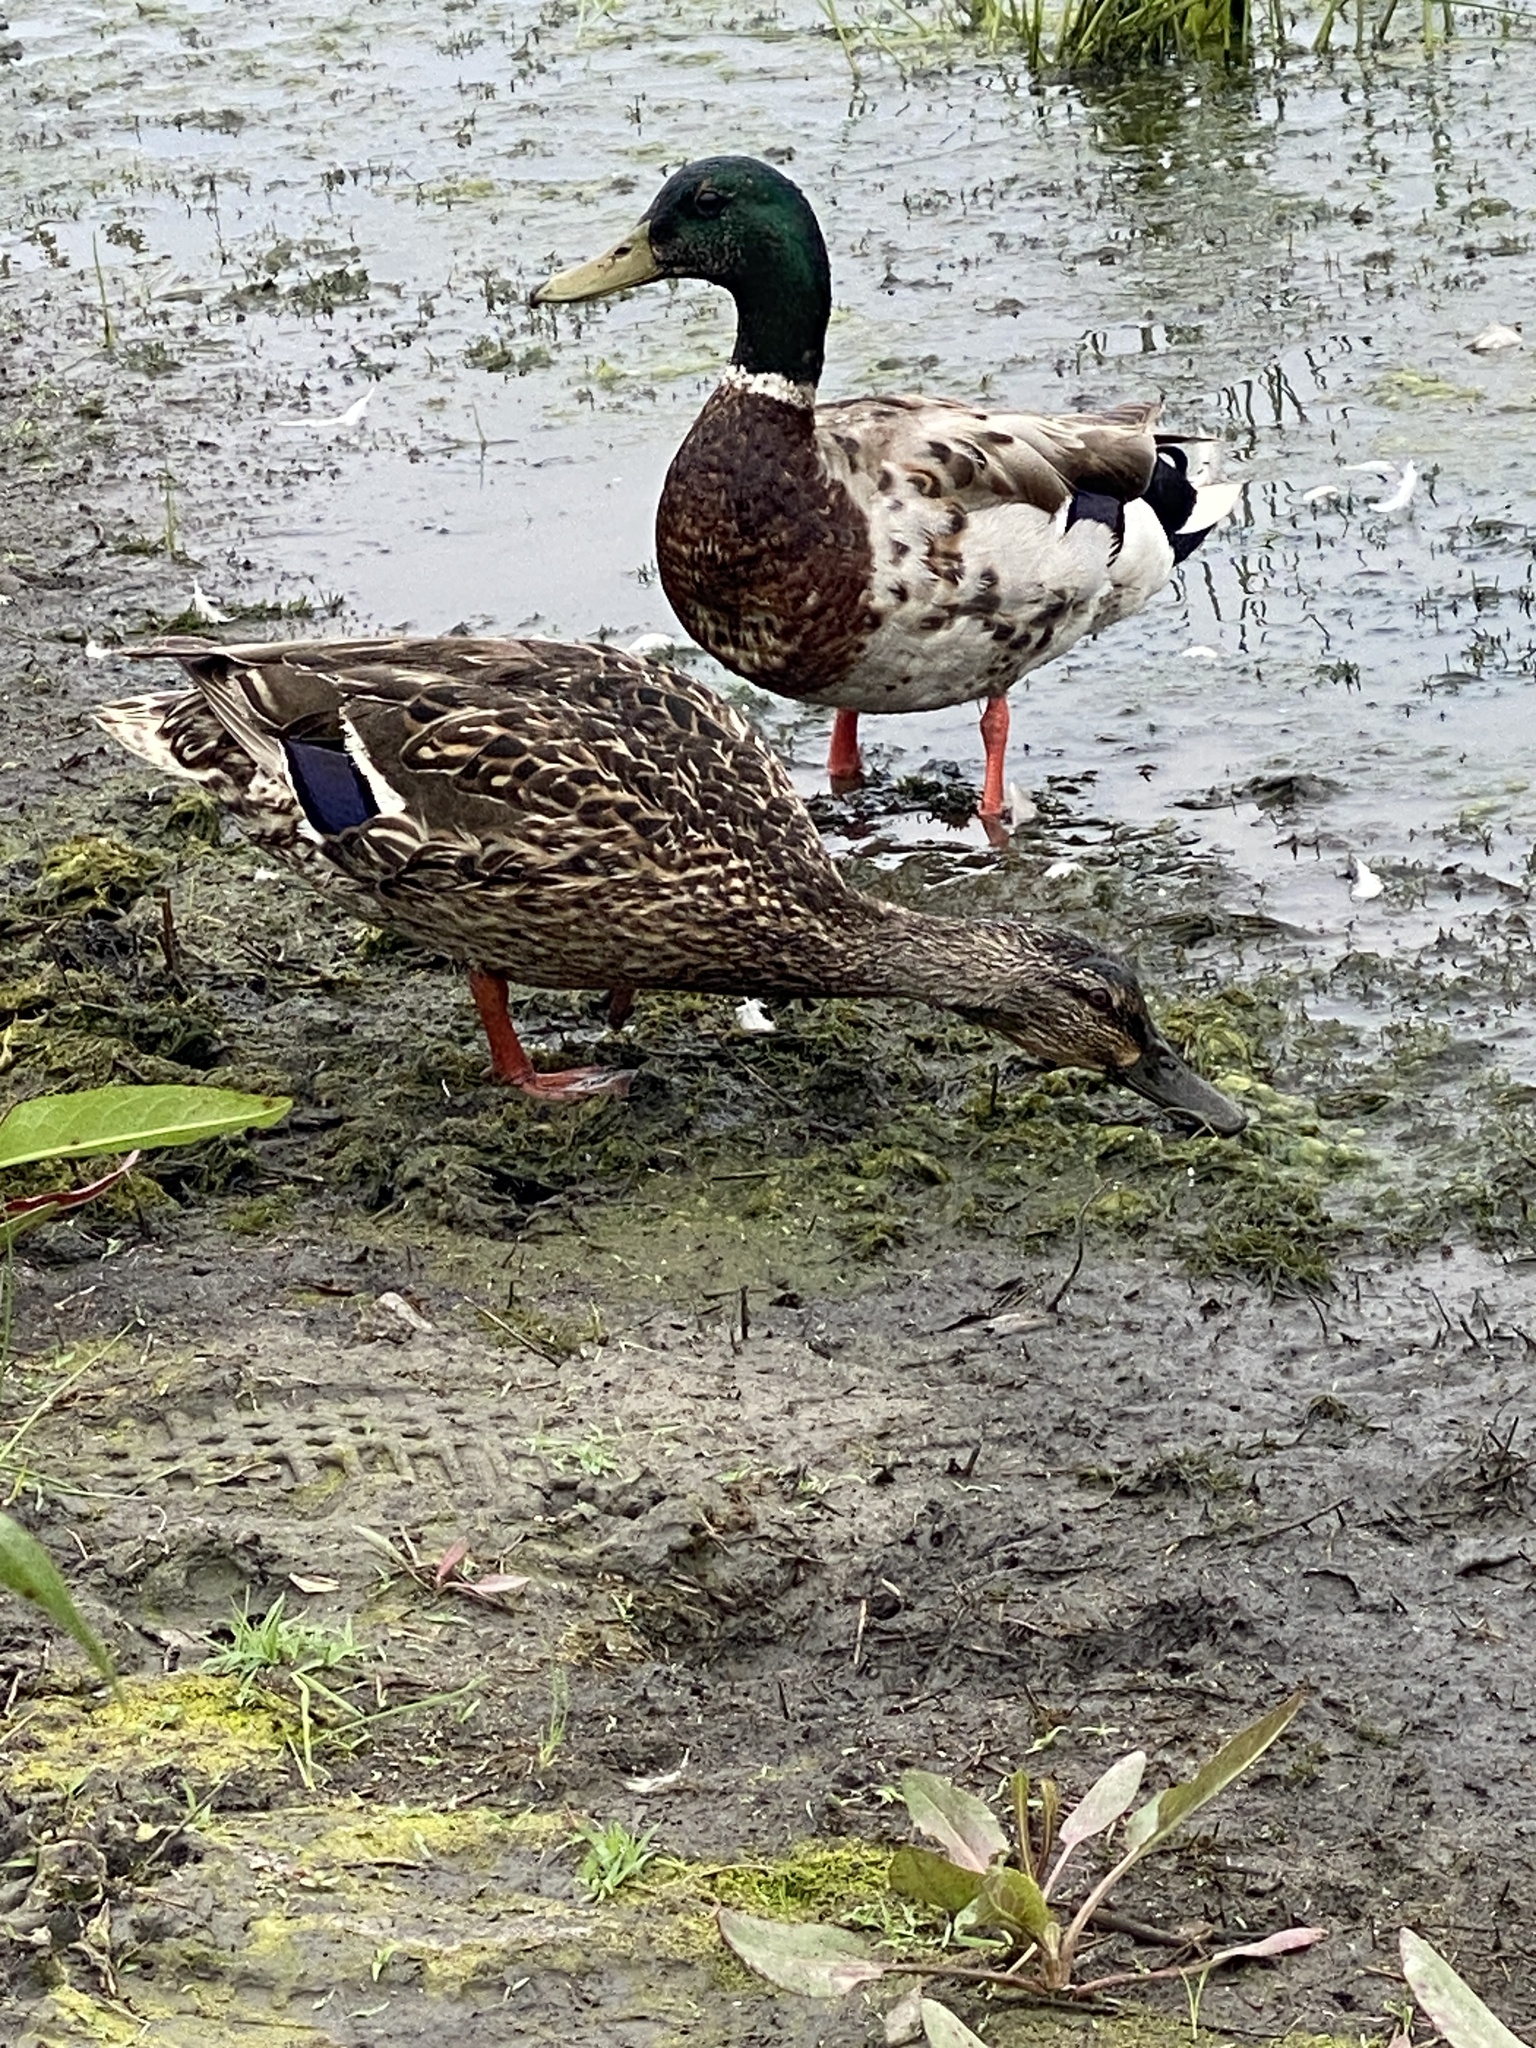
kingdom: Animalia
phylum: Chordata
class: Aves
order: Anseriformes
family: Anatidae
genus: Anas
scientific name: Anas platyrhynchos
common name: Mallard
